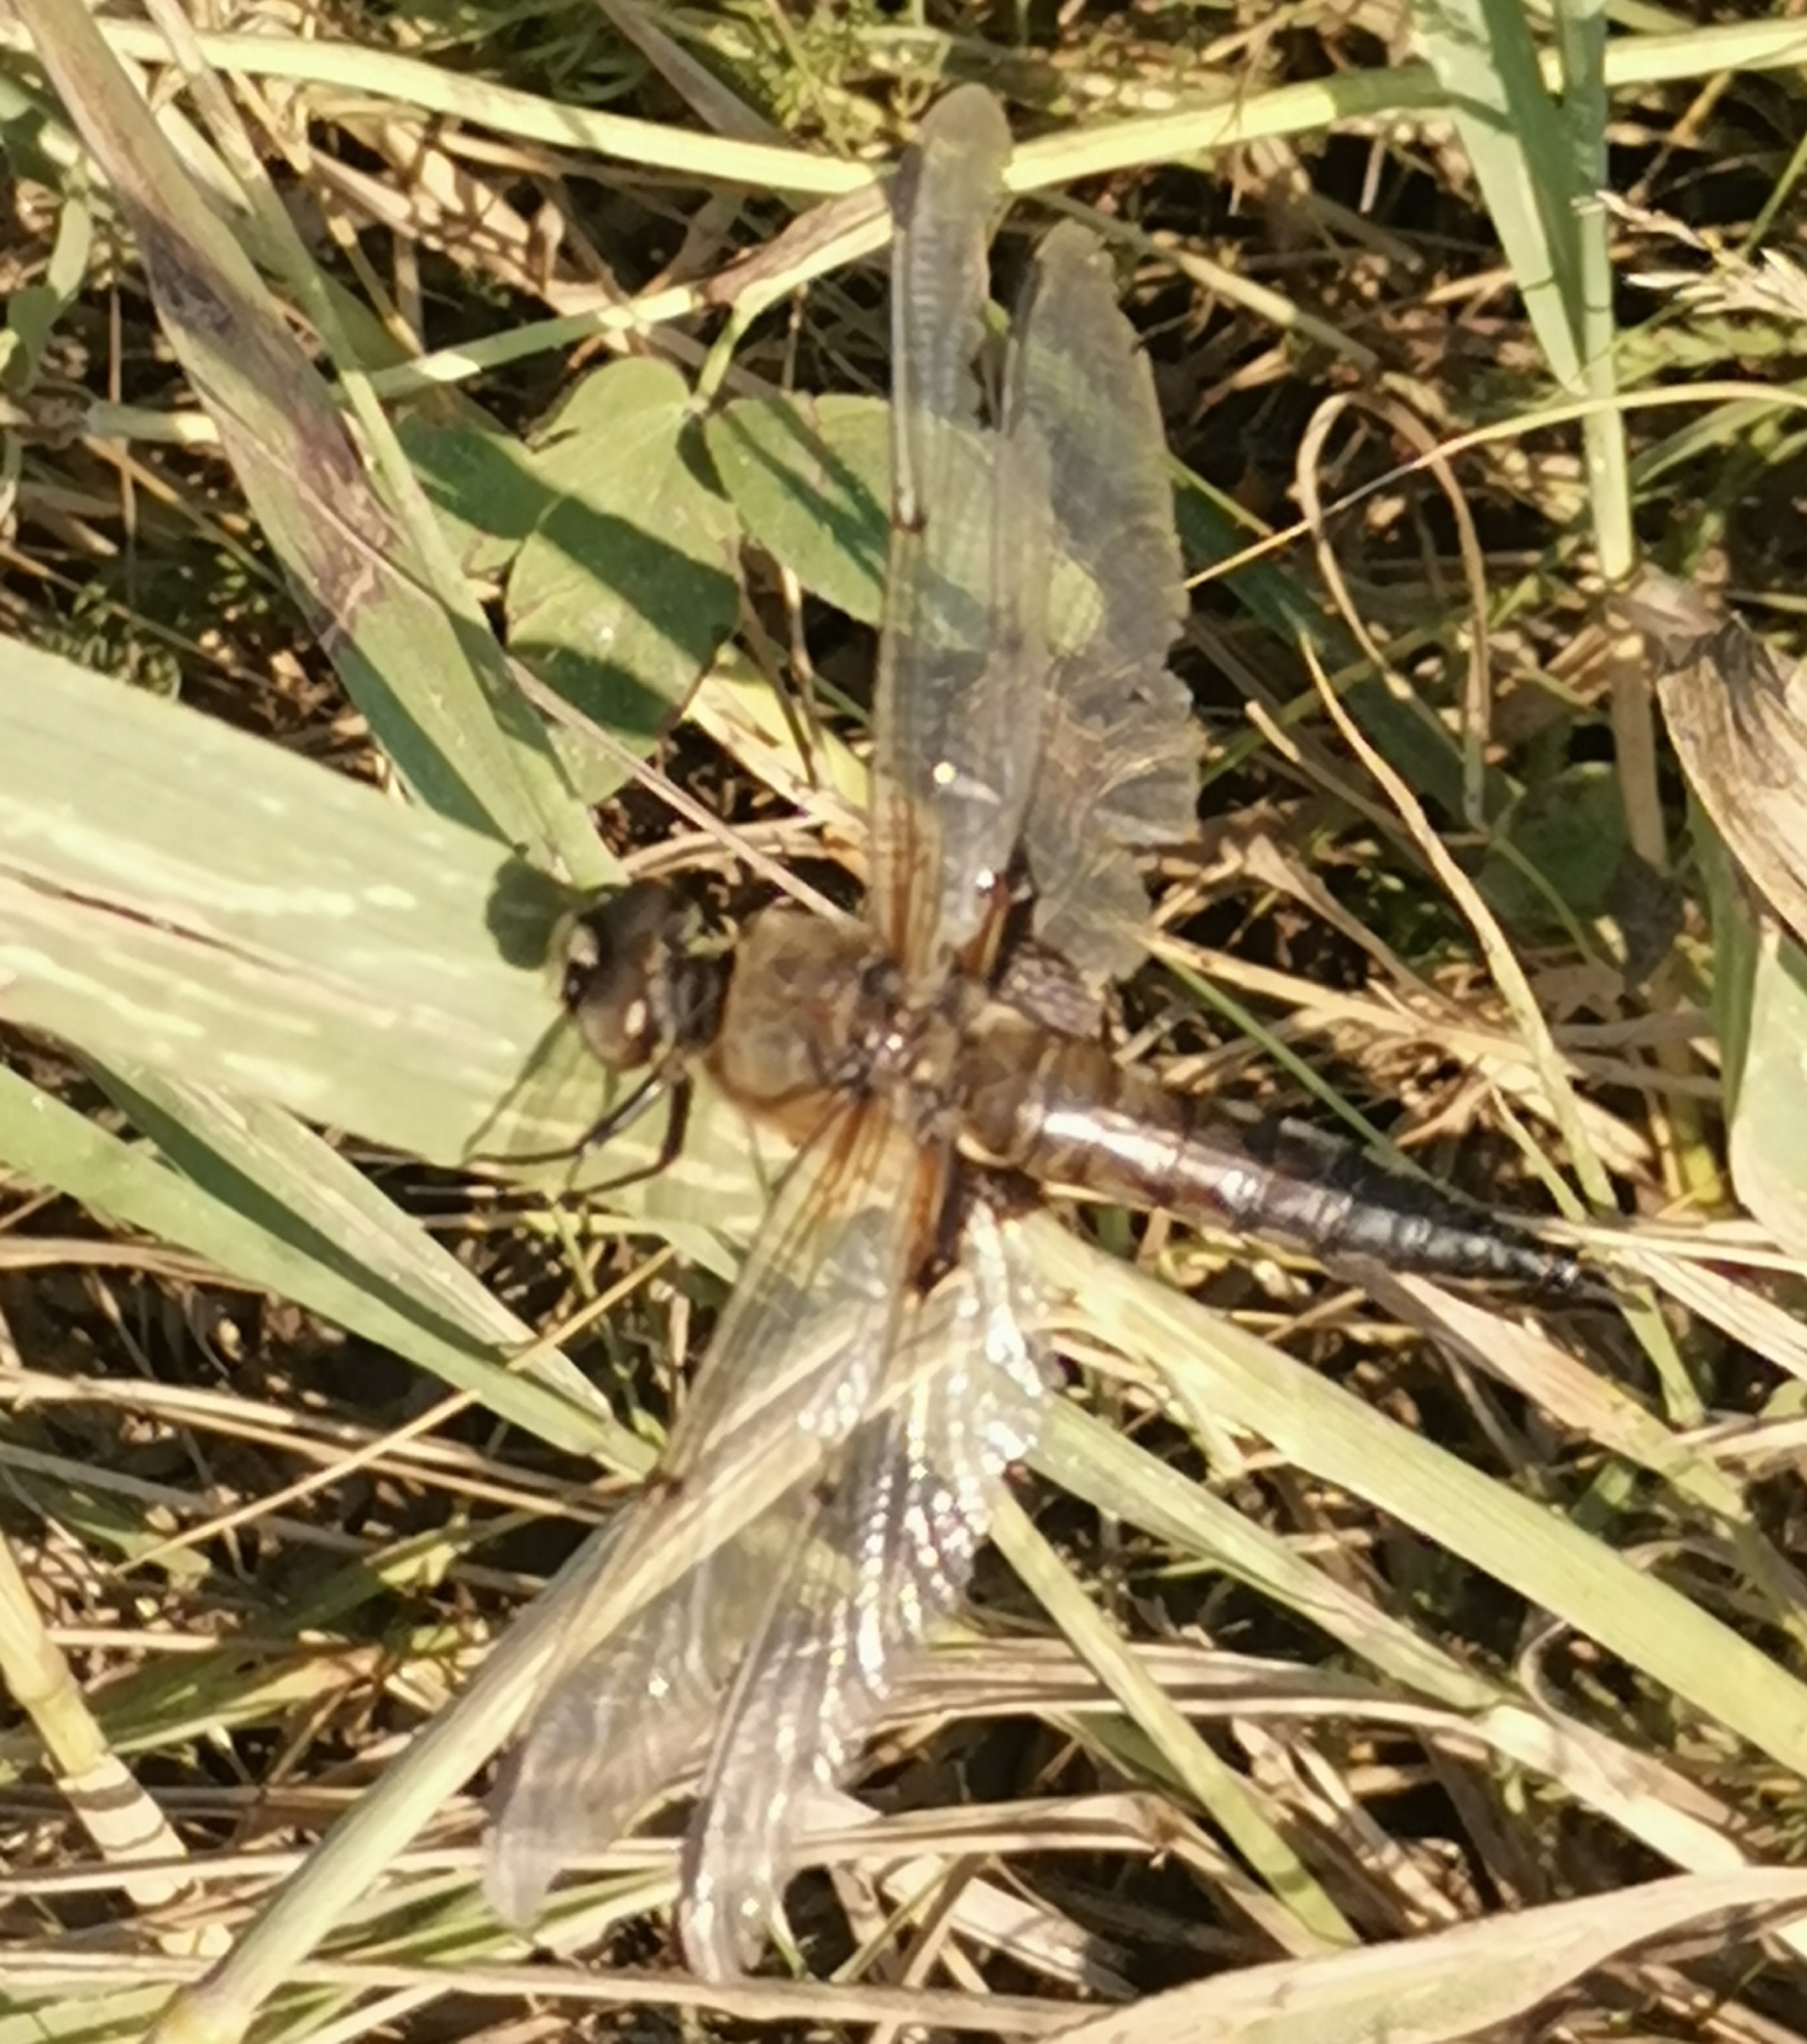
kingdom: Animalia
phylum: Arthropoda
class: Insecta
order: Odonata
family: Libellulidae
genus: Libellula
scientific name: Libellula quadrimaculata
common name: Four-spotted chaser
